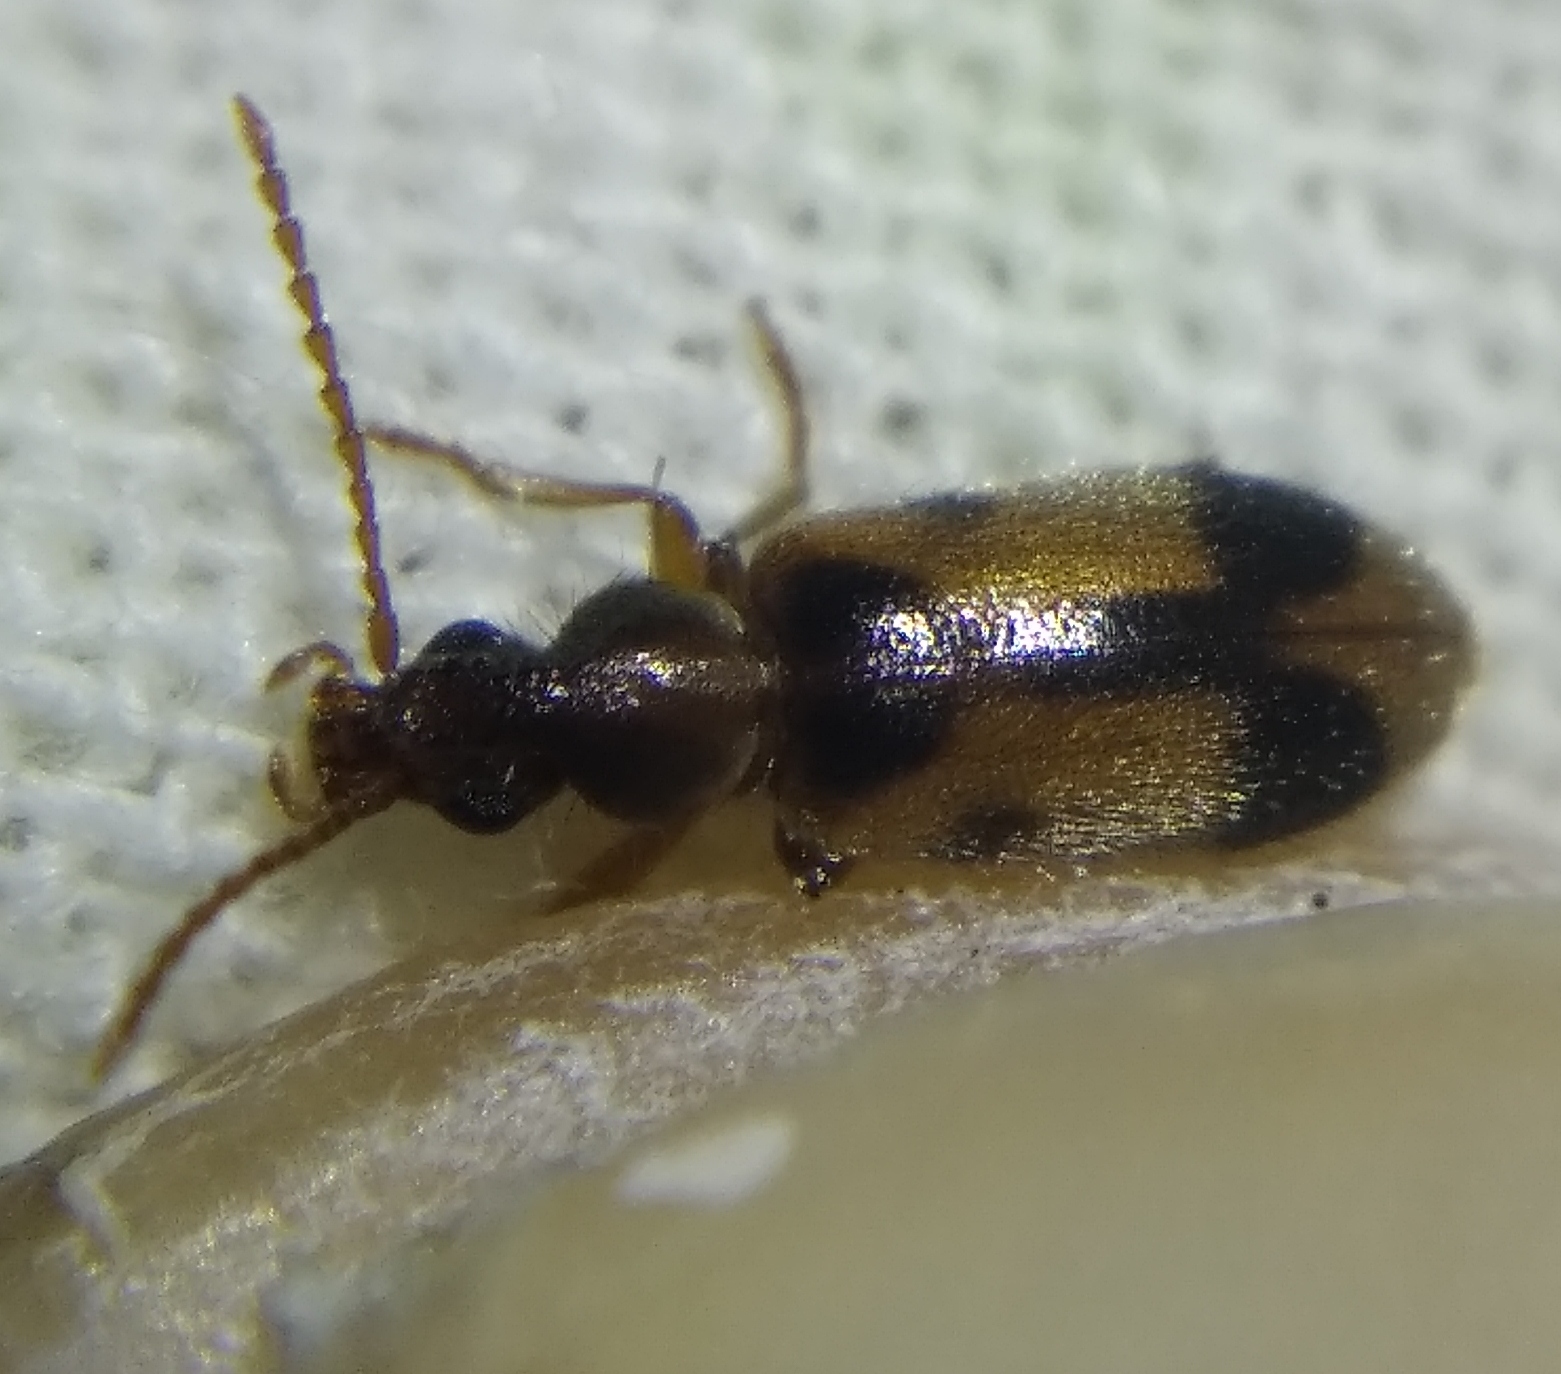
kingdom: Animalia
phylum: Arthropoda
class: Insecta
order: Coleoptera
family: Anthicidae
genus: Notoxus
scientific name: Notoxus monoceros
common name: Monoceros beetle
